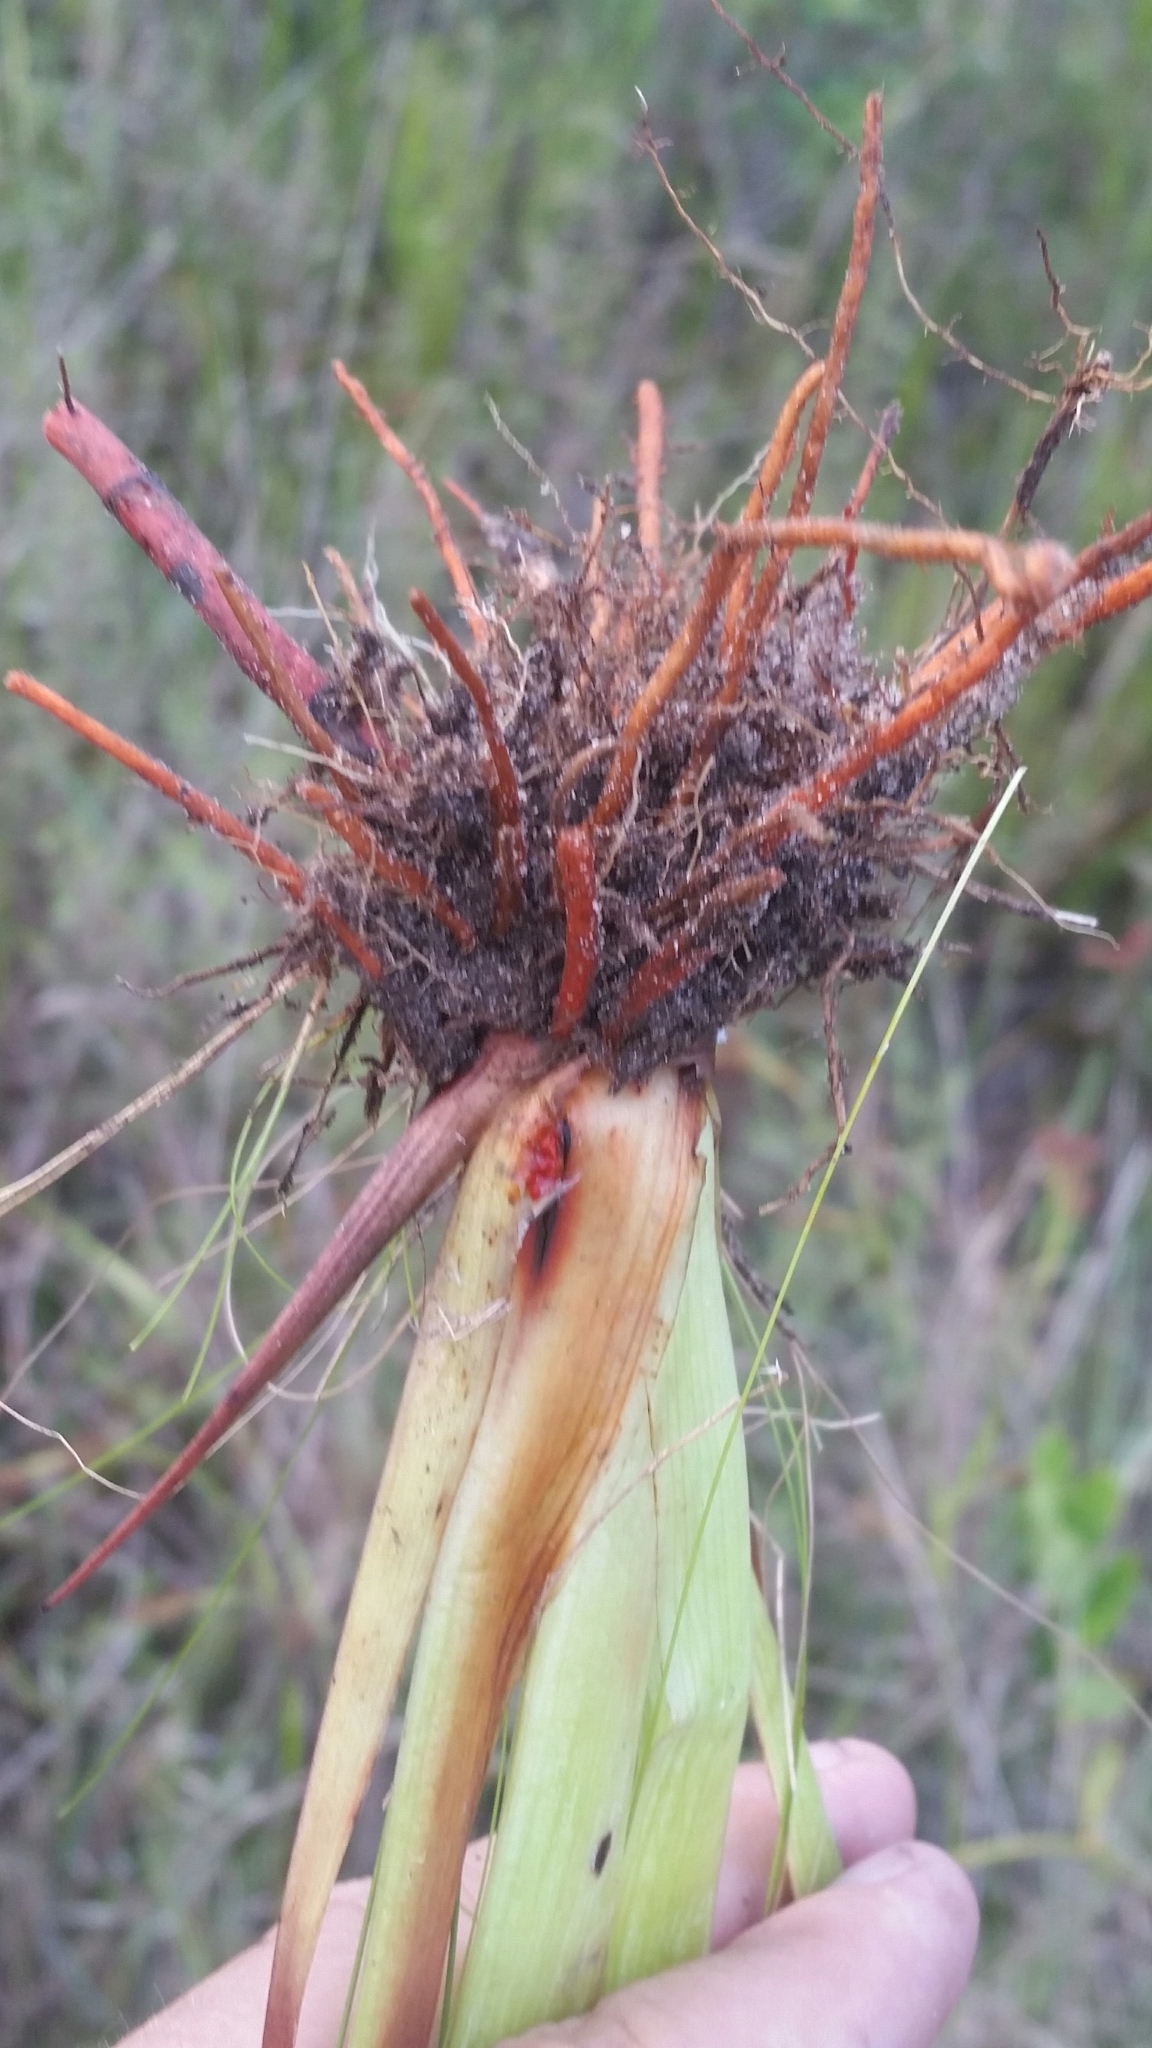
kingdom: Plantae
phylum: Tracheophyta
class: Liliopsida
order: Commelinales
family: Haemodoraceae
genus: Lachnanthes
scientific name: Lachnanthes caroliana
